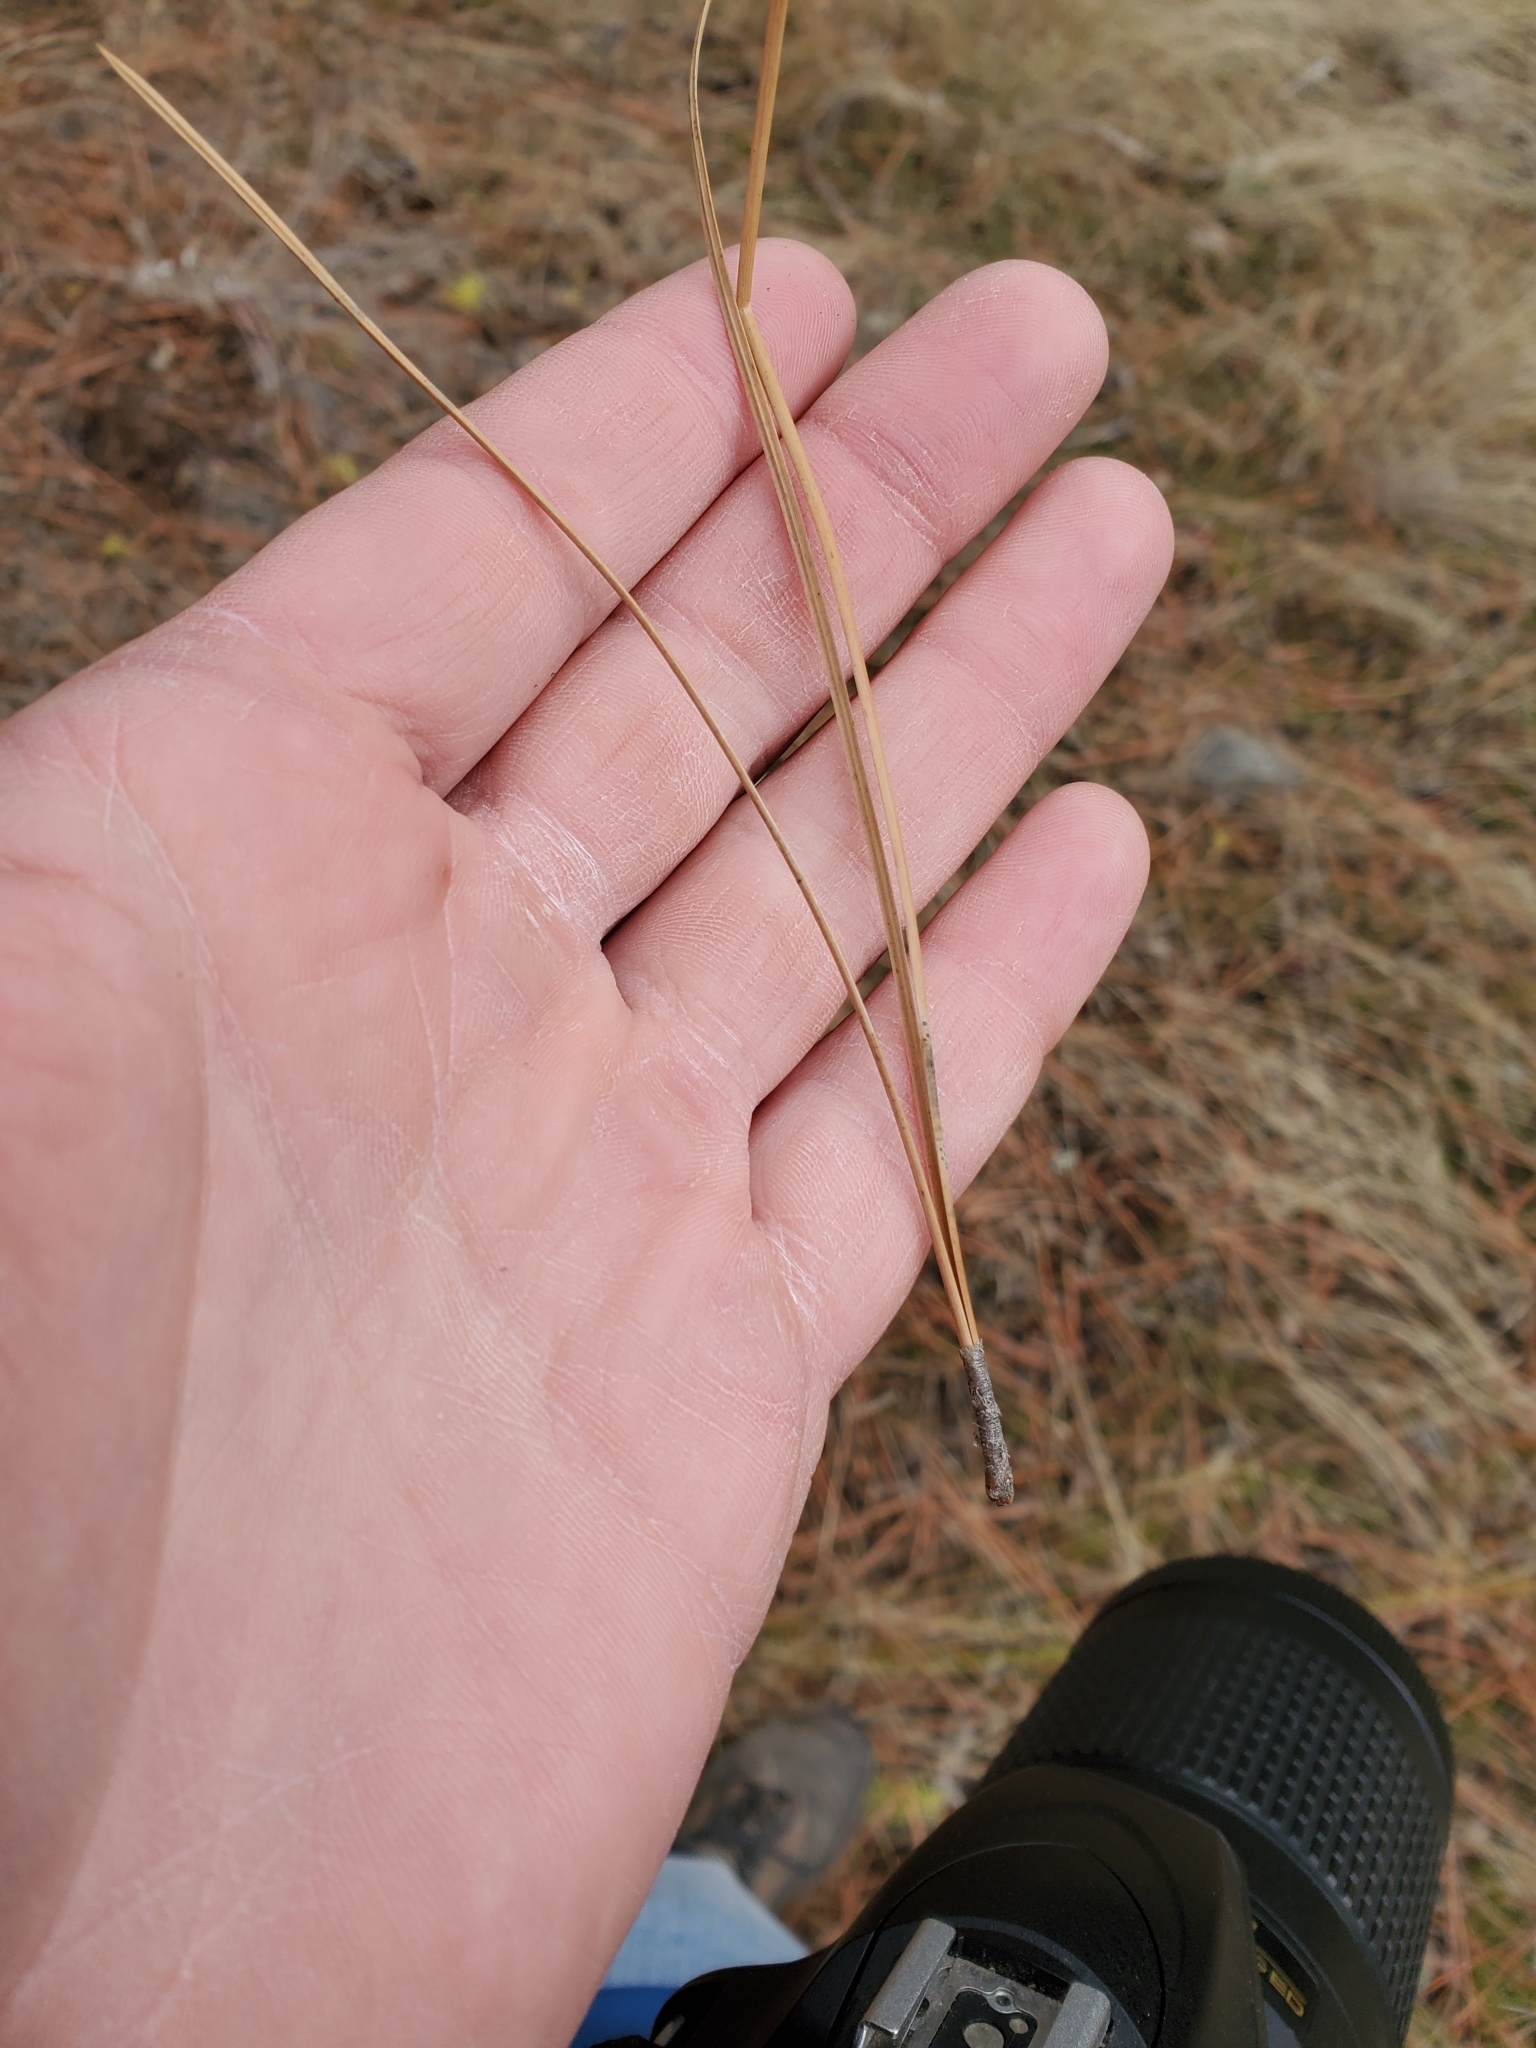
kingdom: Plantae
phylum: Tracheophyta
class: Pinopsida
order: Pinales
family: Pinaceae
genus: Pinus
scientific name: Pinus ponderosa
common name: Western yellow-pine
